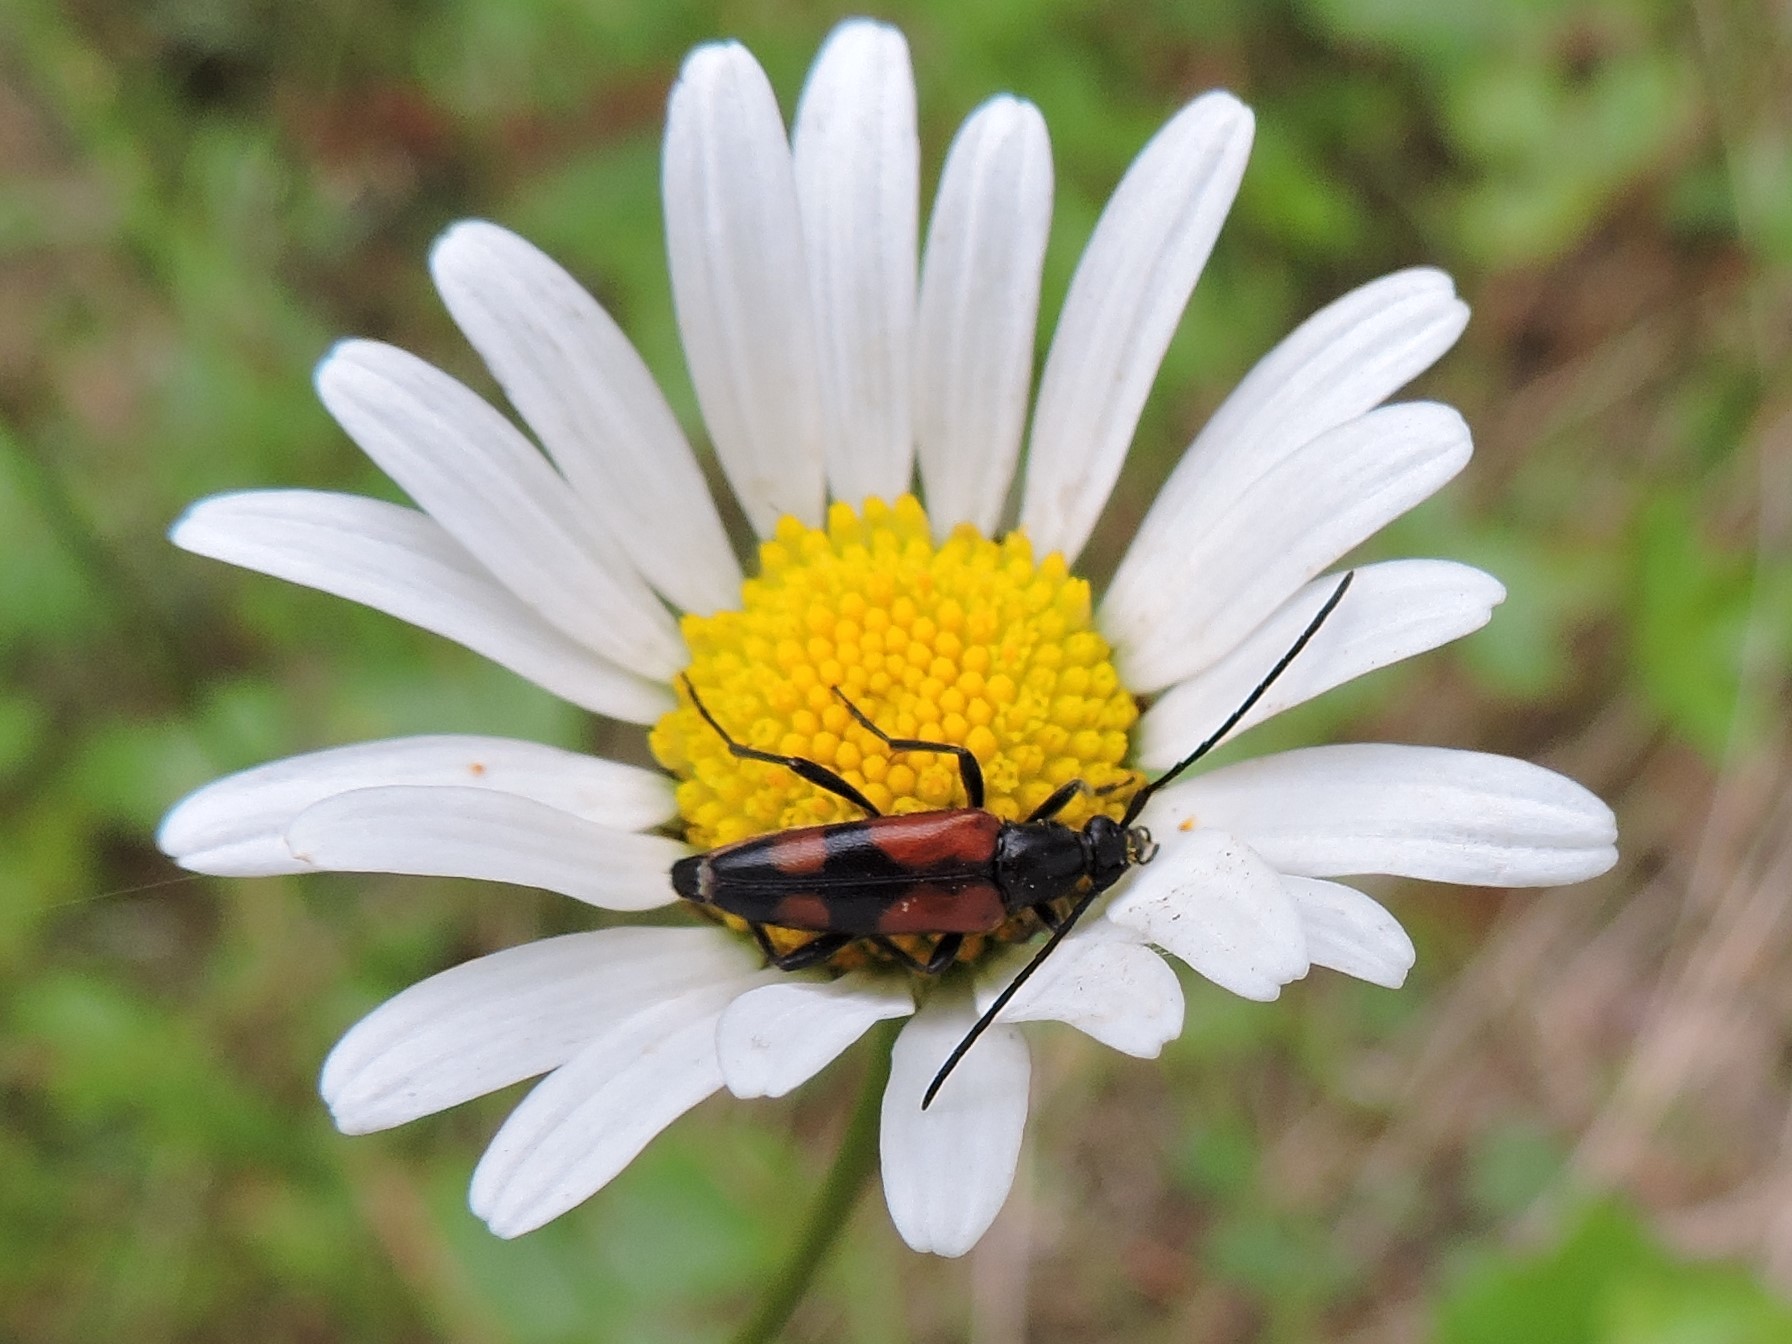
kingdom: Animalia
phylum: Arthropoda
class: Insecta
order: Coleoptera
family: Cerambycidae
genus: Stenurella
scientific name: Stenurella bifasciata
